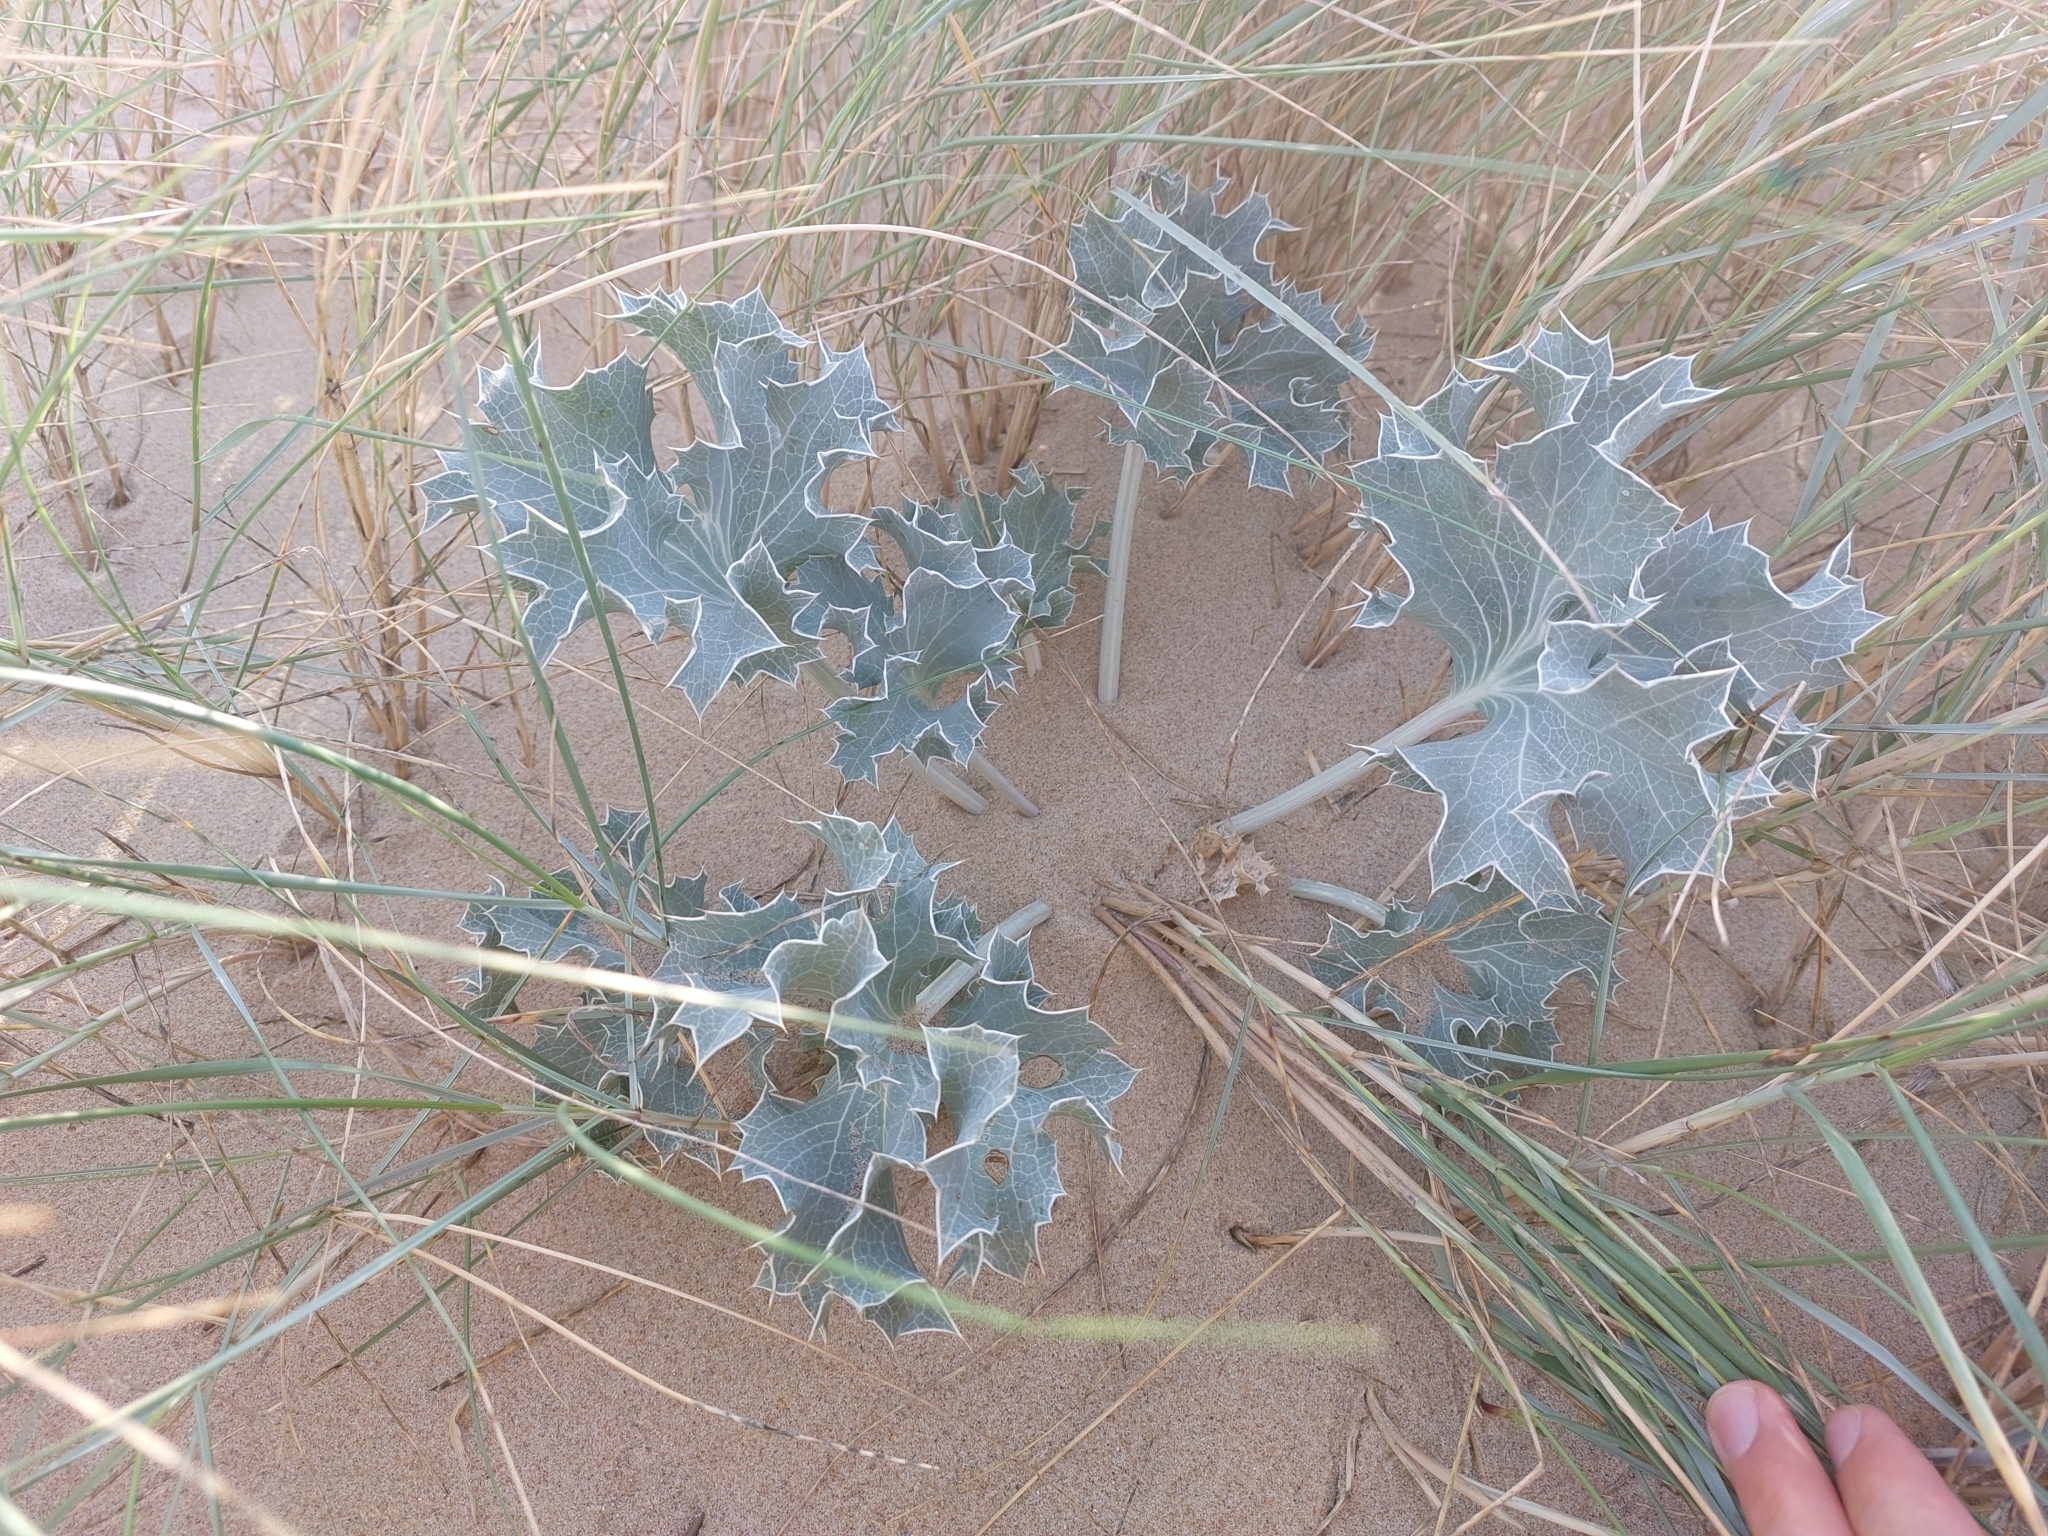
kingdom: Plantae
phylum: Tracheophyta
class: Magnoliopsida
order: Apiales
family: Apiaceae
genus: Eryngium
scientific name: Eryngium maritimum
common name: Sea-holly
